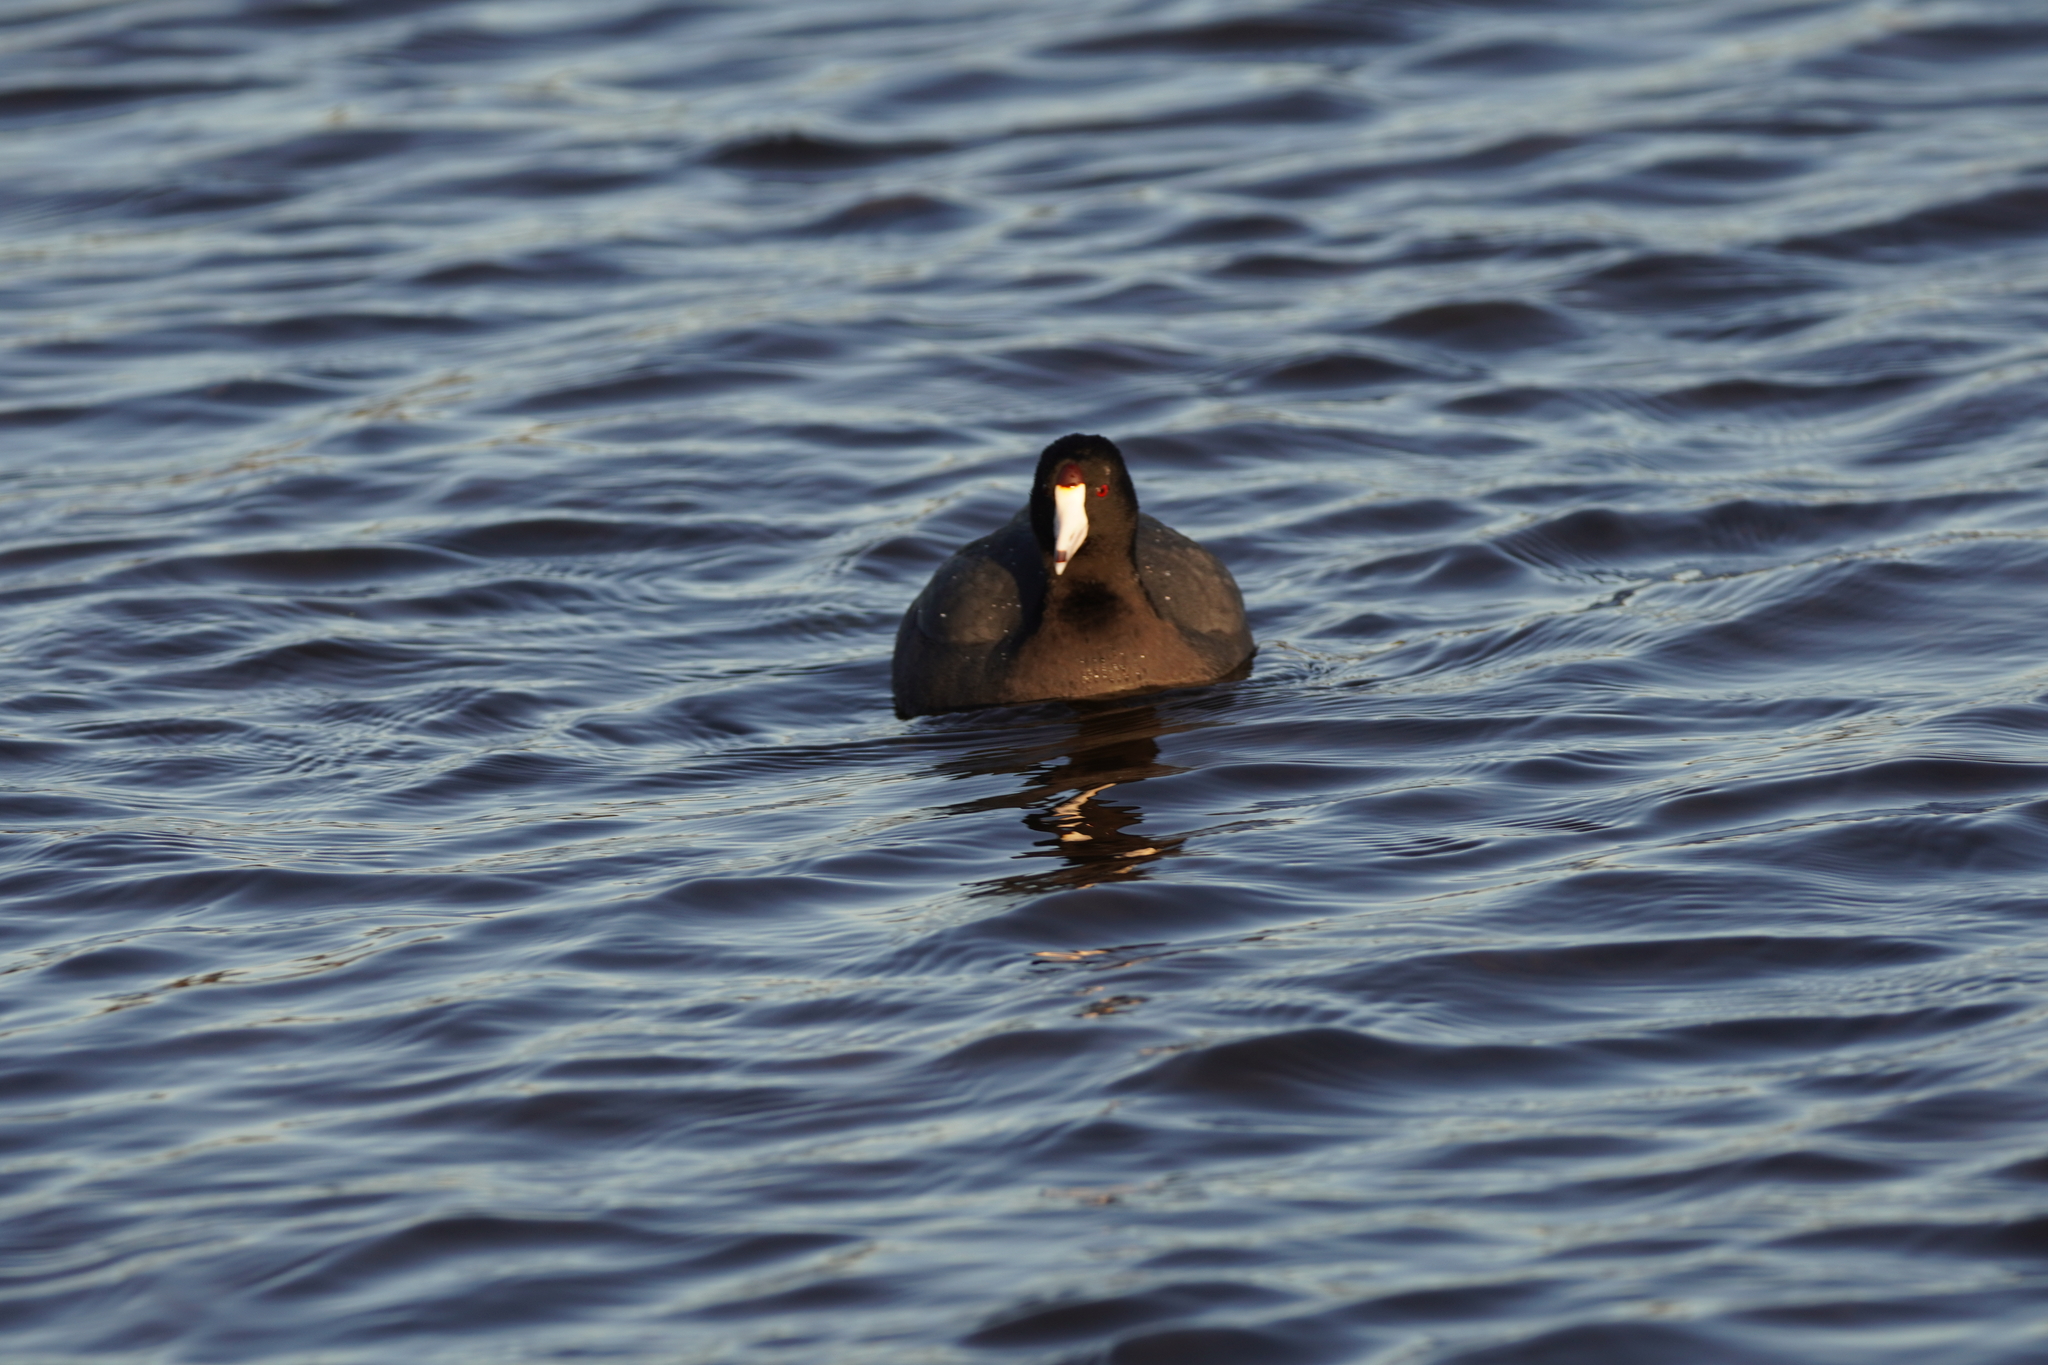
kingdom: Animalia
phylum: Chordata
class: Aves
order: Gruiformes
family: Rallidae
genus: Fulica
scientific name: Fulica americana
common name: American coot
